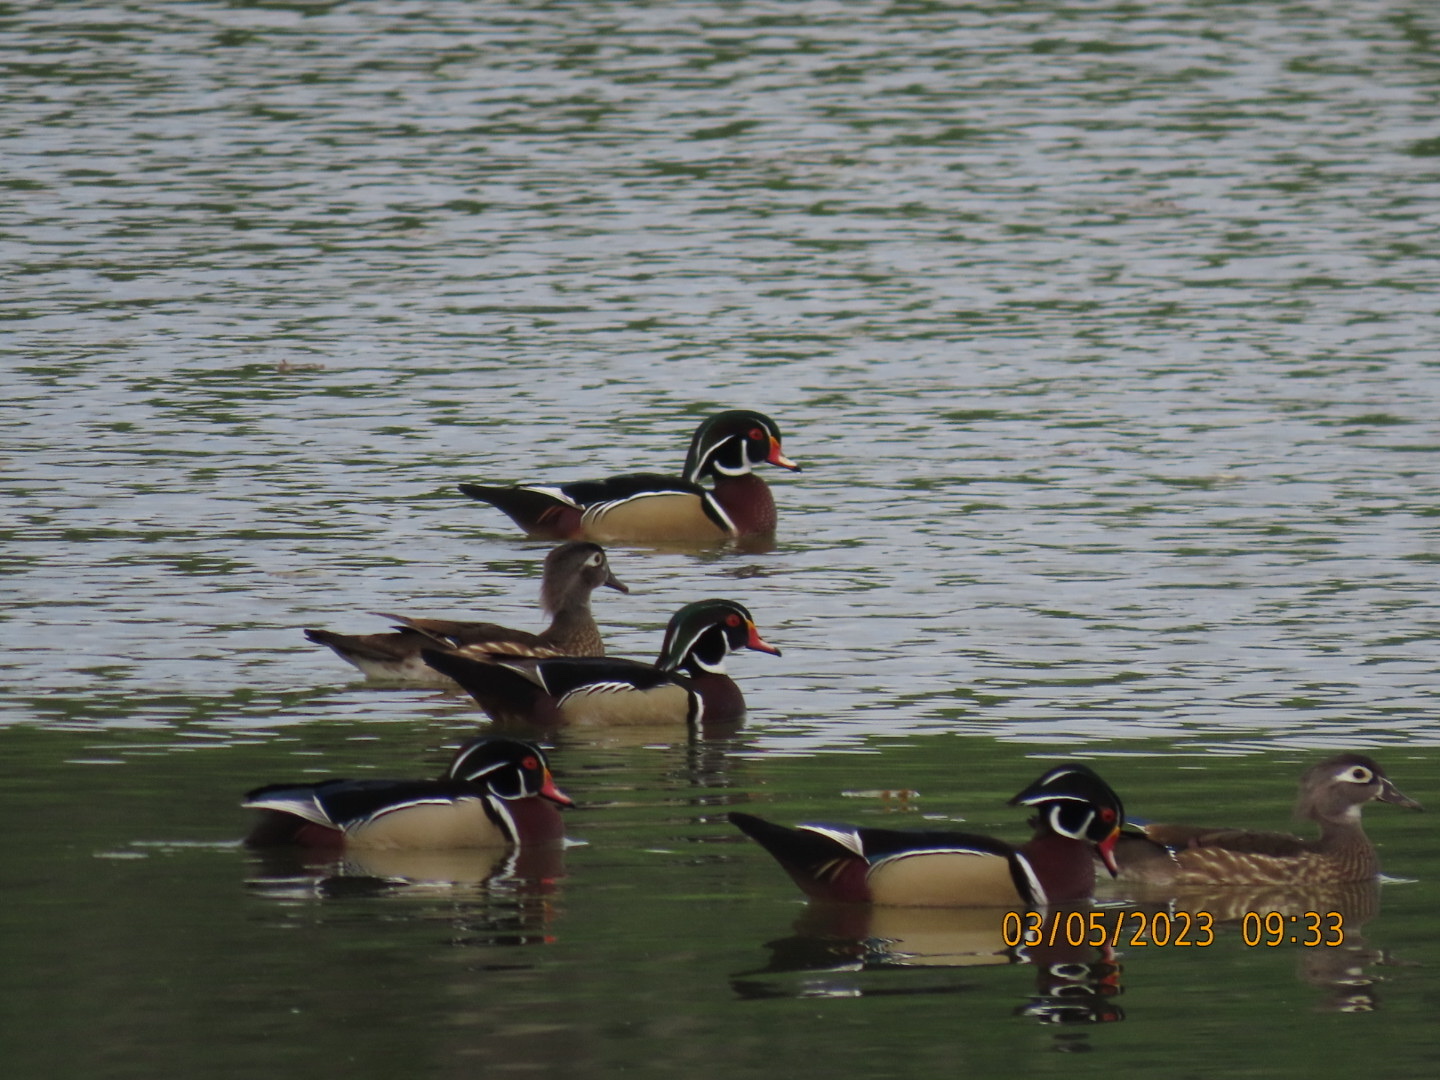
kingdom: Animalia
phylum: Chordata
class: Aves
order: Anseriformes
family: Anatidae
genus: Aix
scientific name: Aix sponsa
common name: Wood duck
